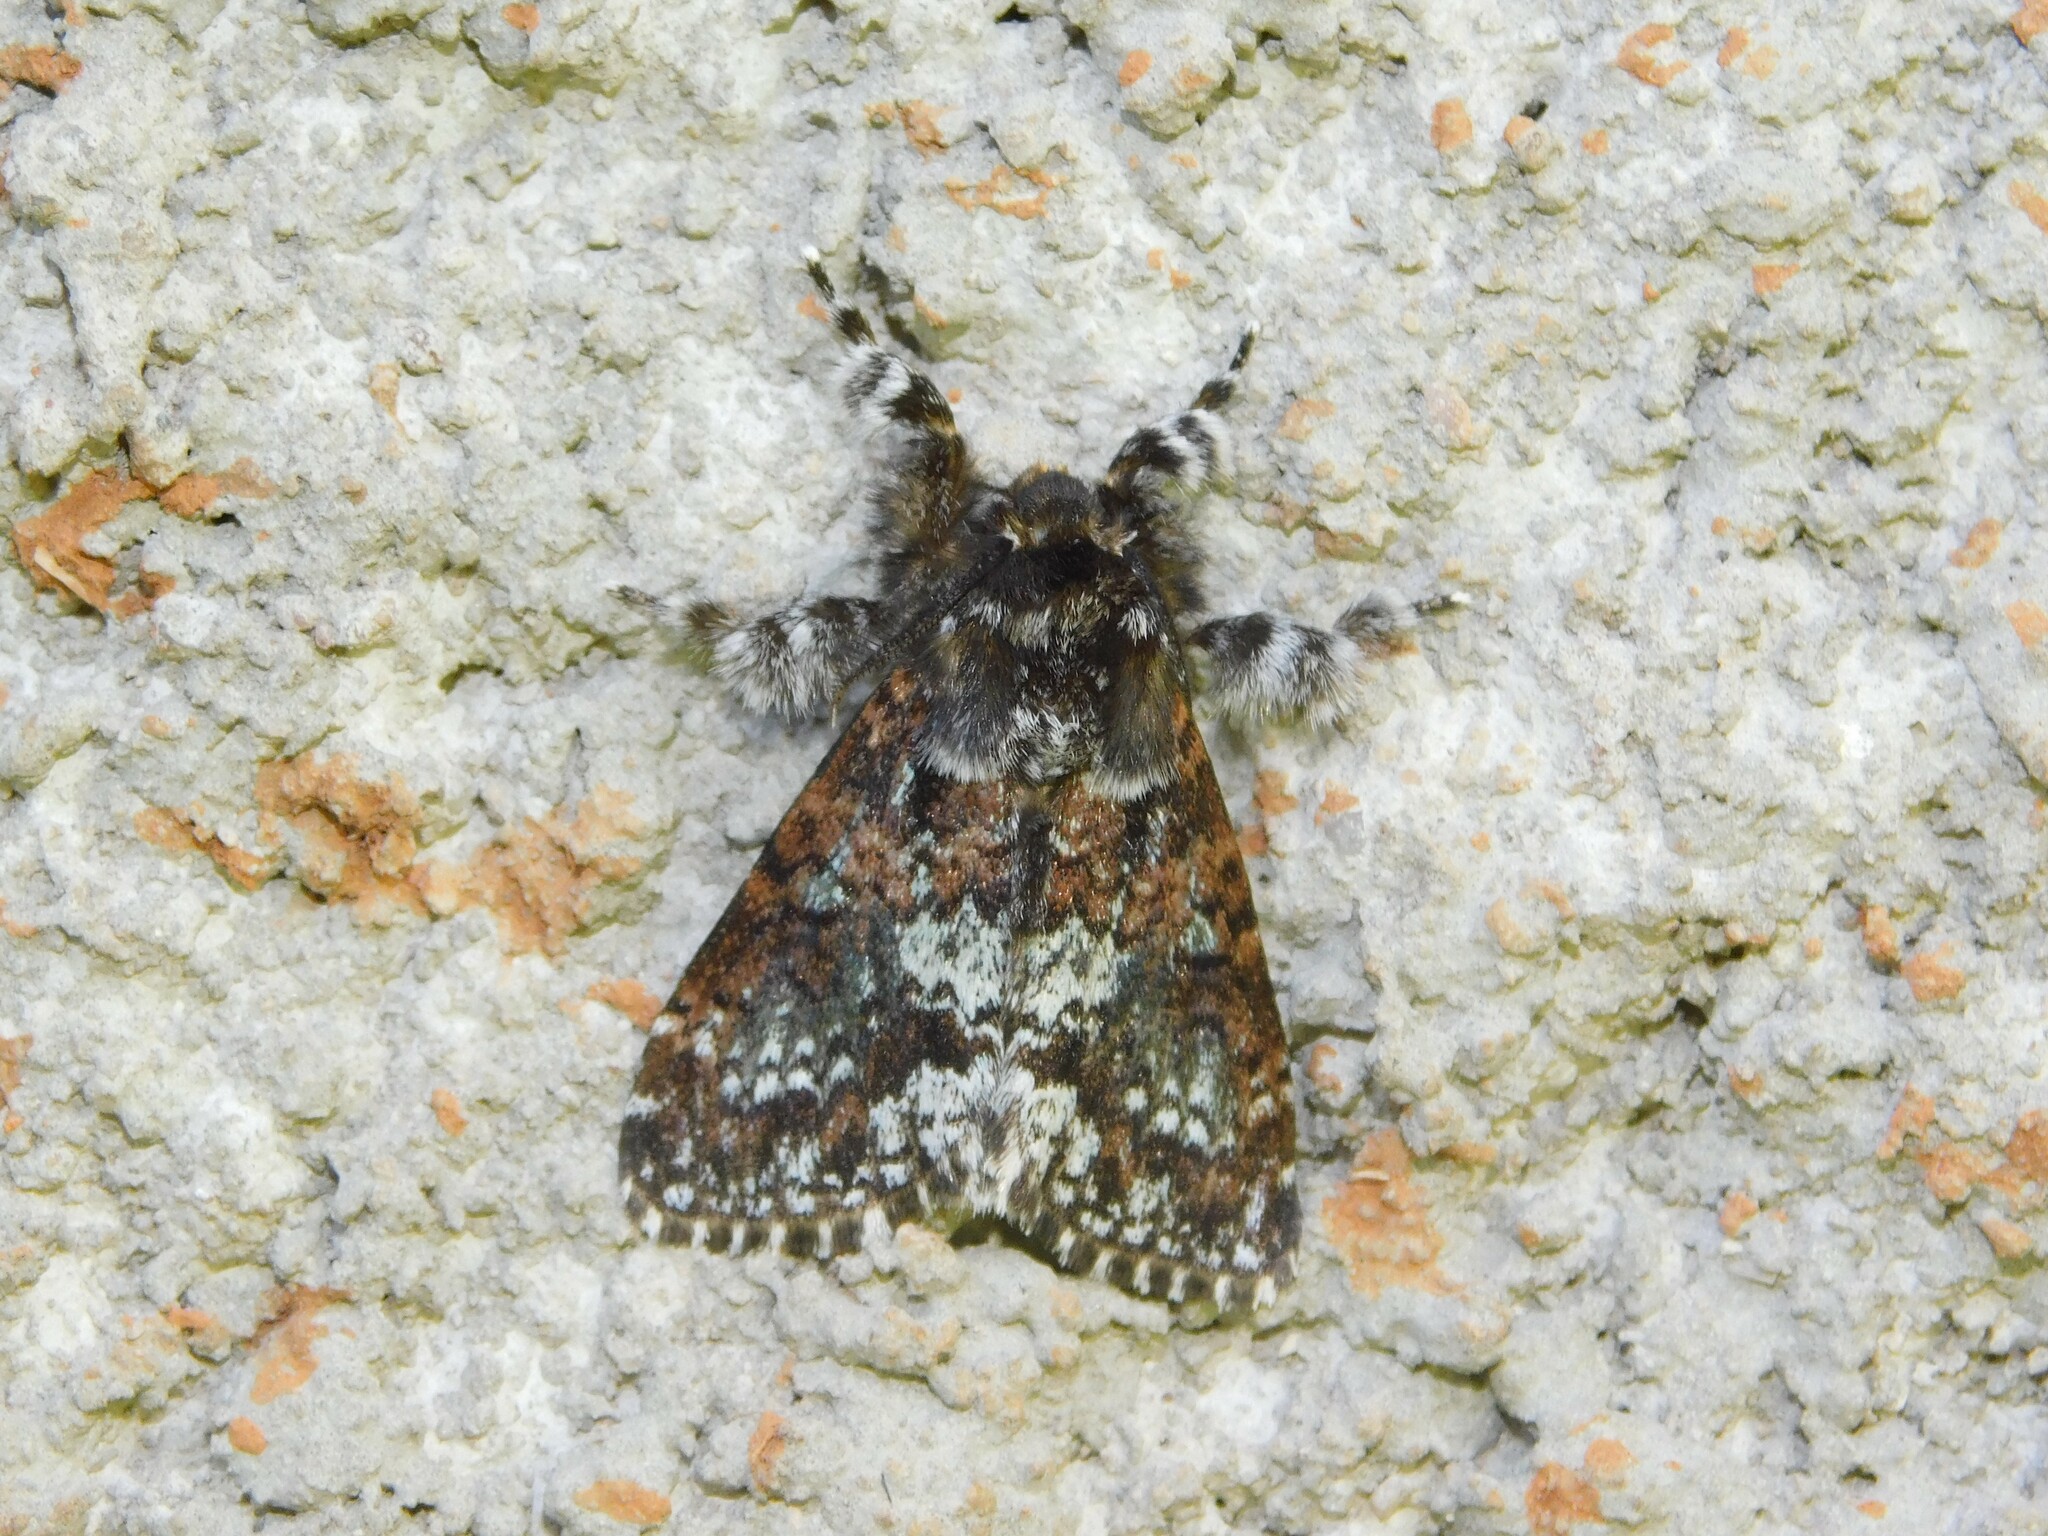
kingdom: Animalia
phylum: Arthropoda
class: Insecta
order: Lepidoptera
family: Erebidae
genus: Dasychira
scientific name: Dasychira goodii
